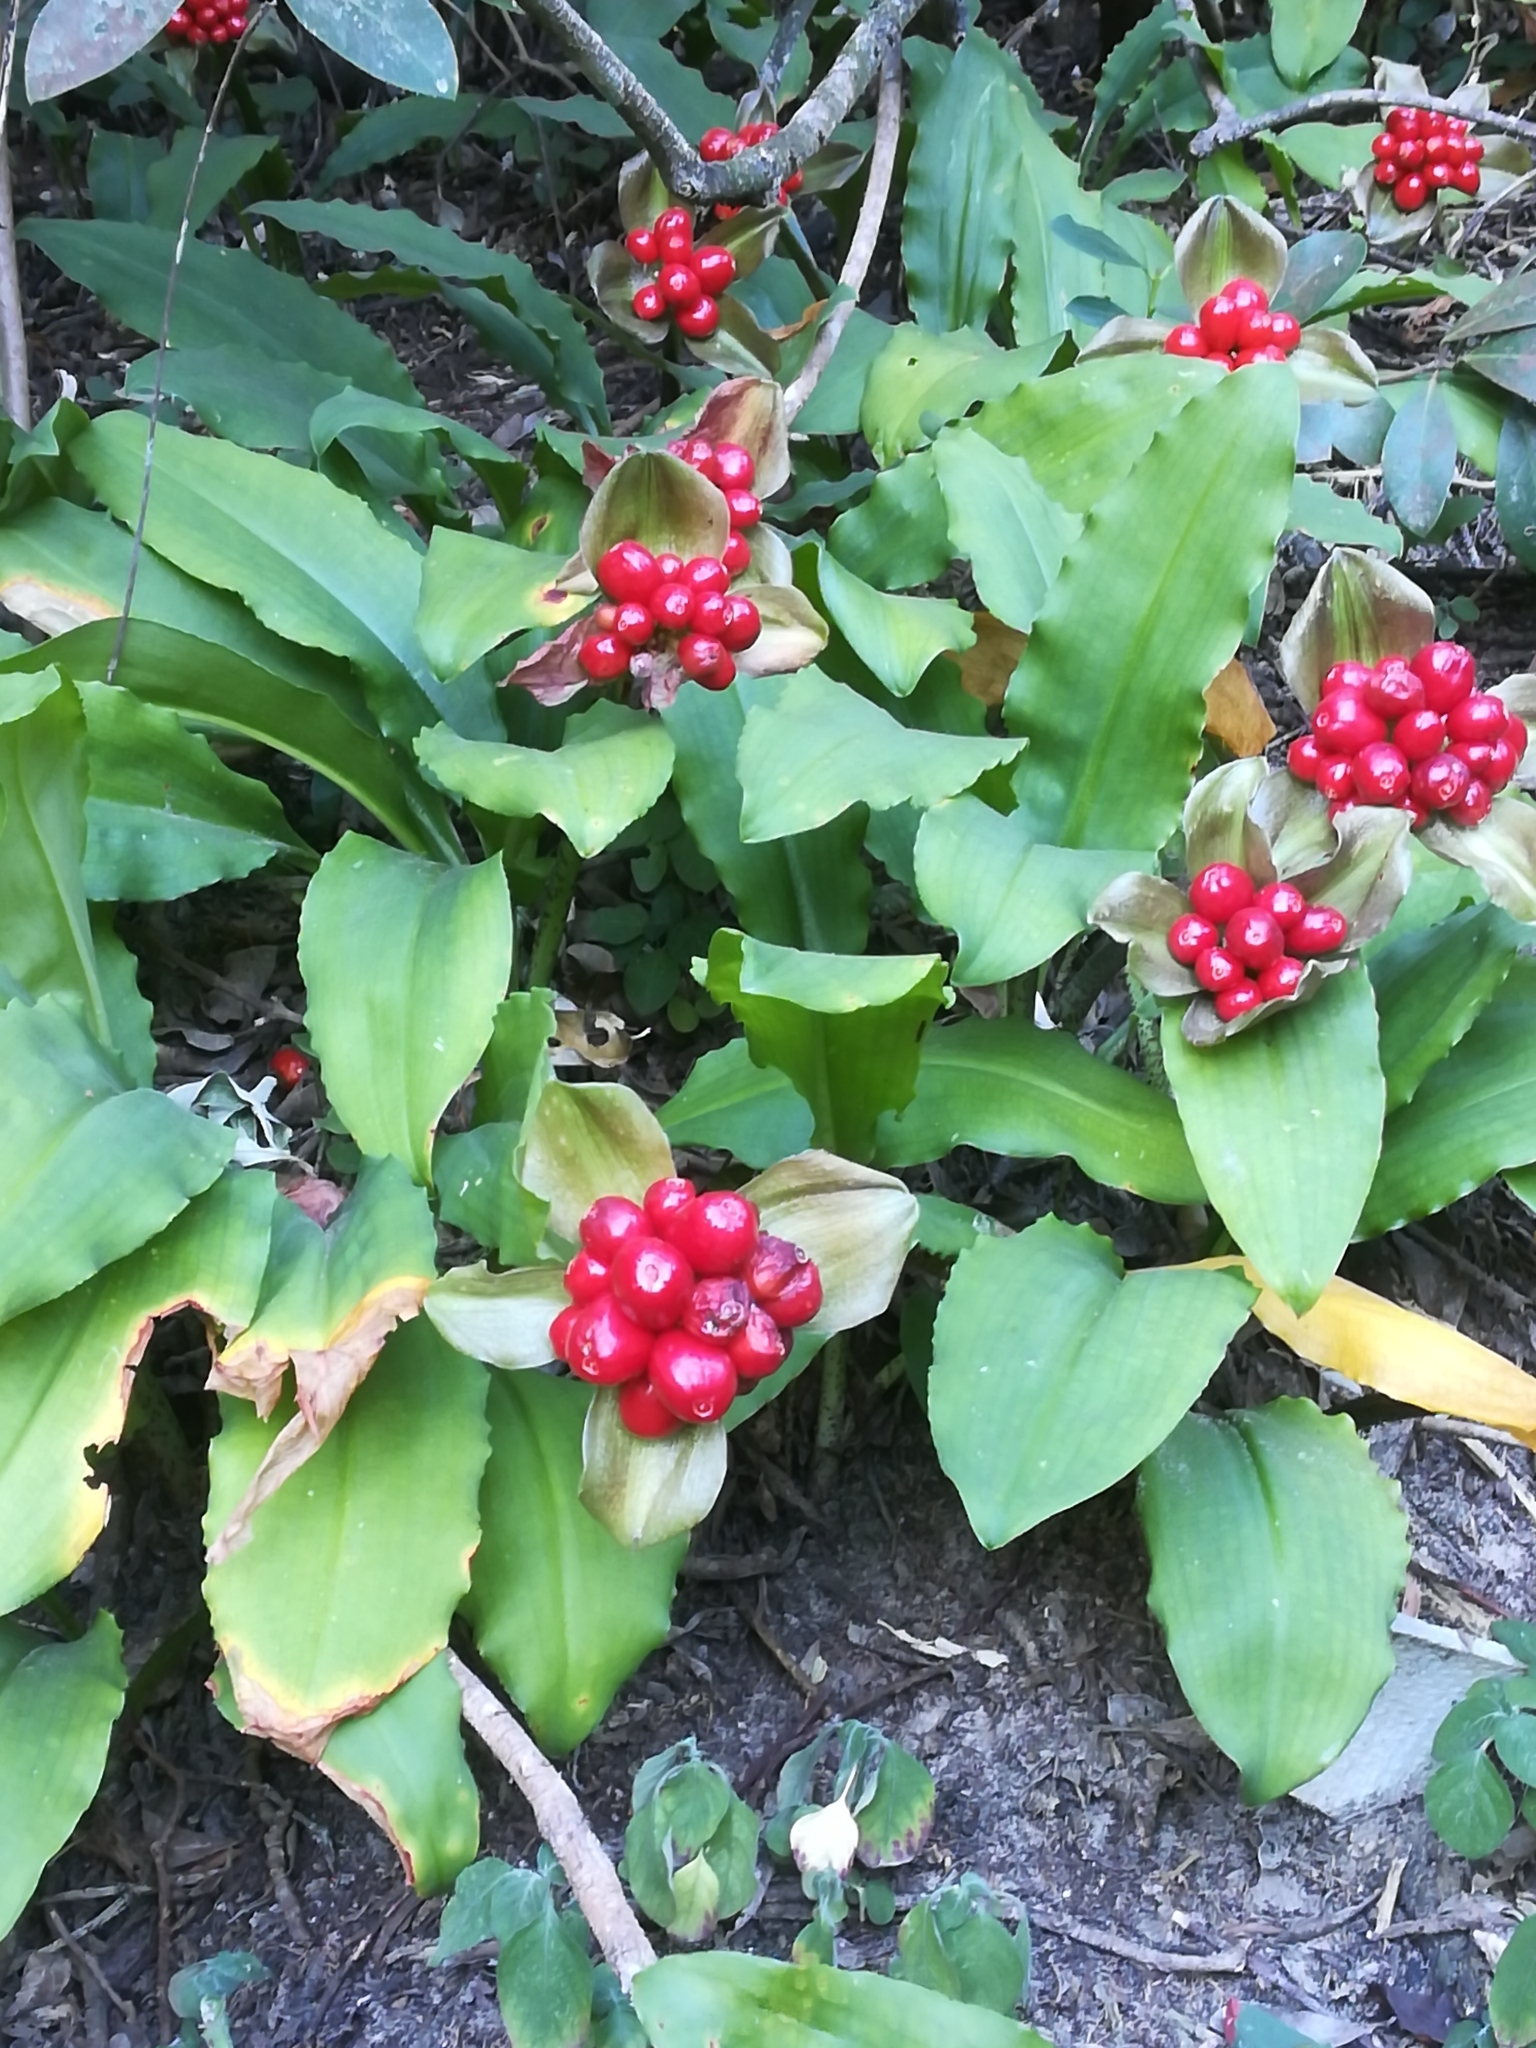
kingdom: Plantae
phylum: Tracheophyta
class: Liliopsida
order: Asparagales
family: Amaryllidaceae
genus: Scadoxus
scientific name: Scadoxus membranaceus
